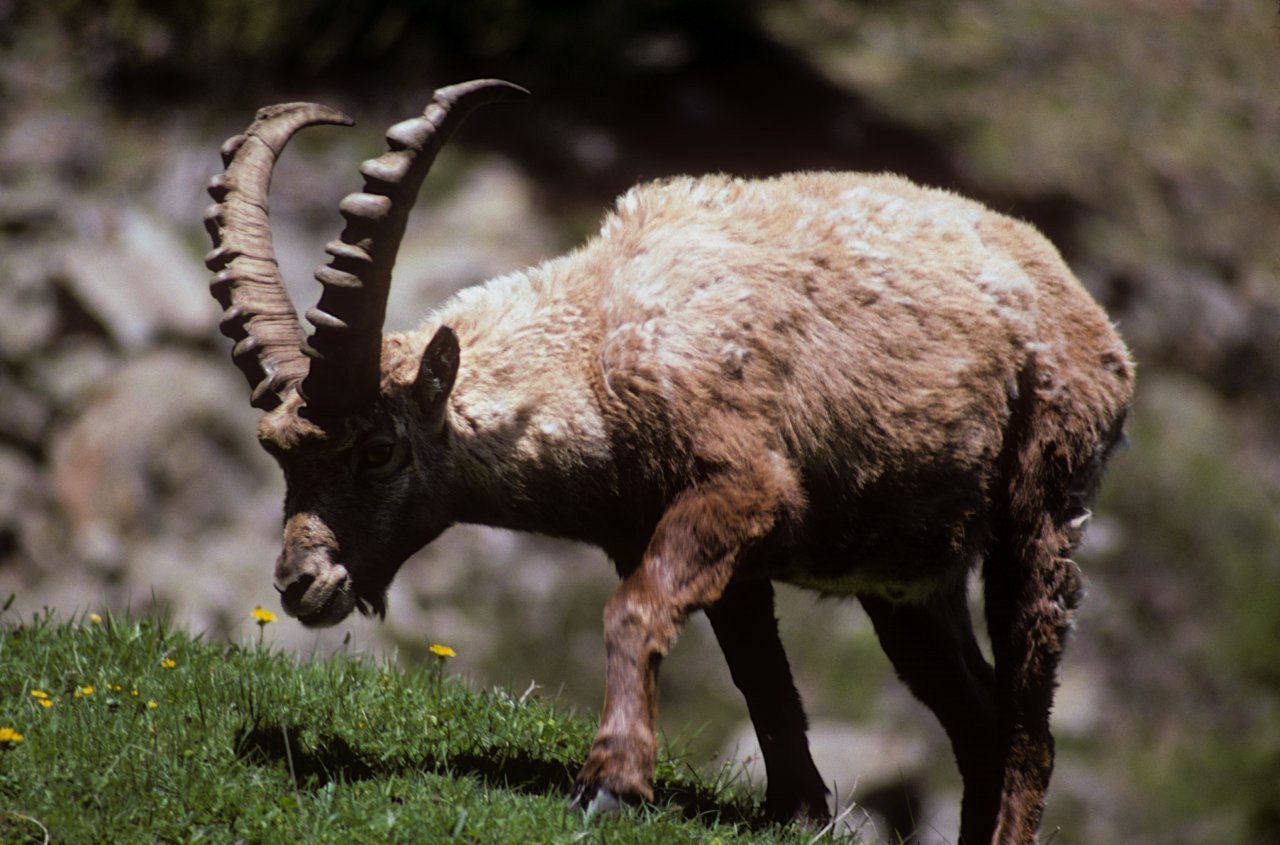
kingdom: Animalia
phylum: Chordata
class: Mammalia
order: Artiodactyla
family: Bovidae
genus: Capra
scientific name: Capra ibex
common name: Alpine ibex
